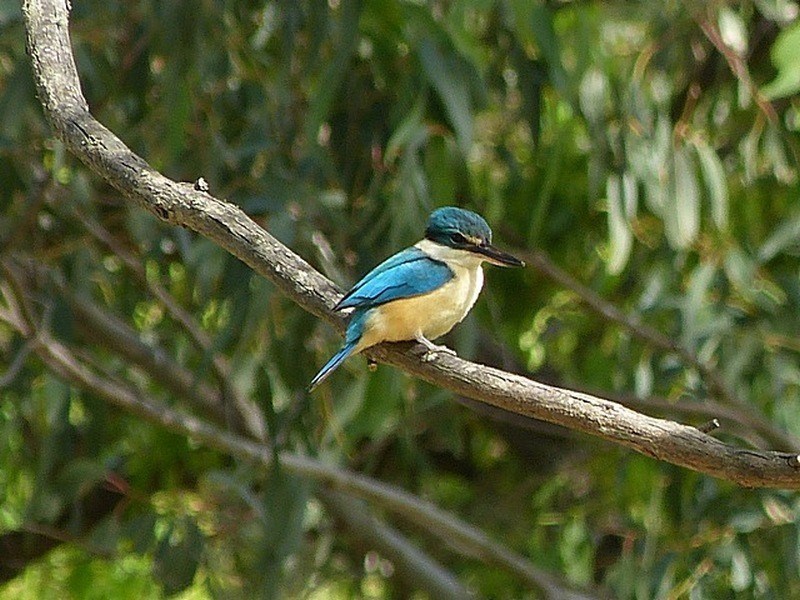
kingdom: Animalia
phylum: Chordata
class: Aves
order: Coraciiformes
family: Alcedinidae
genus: Todiramphus
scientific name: Todiramphus sanctus
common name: Sacred kingfisher
